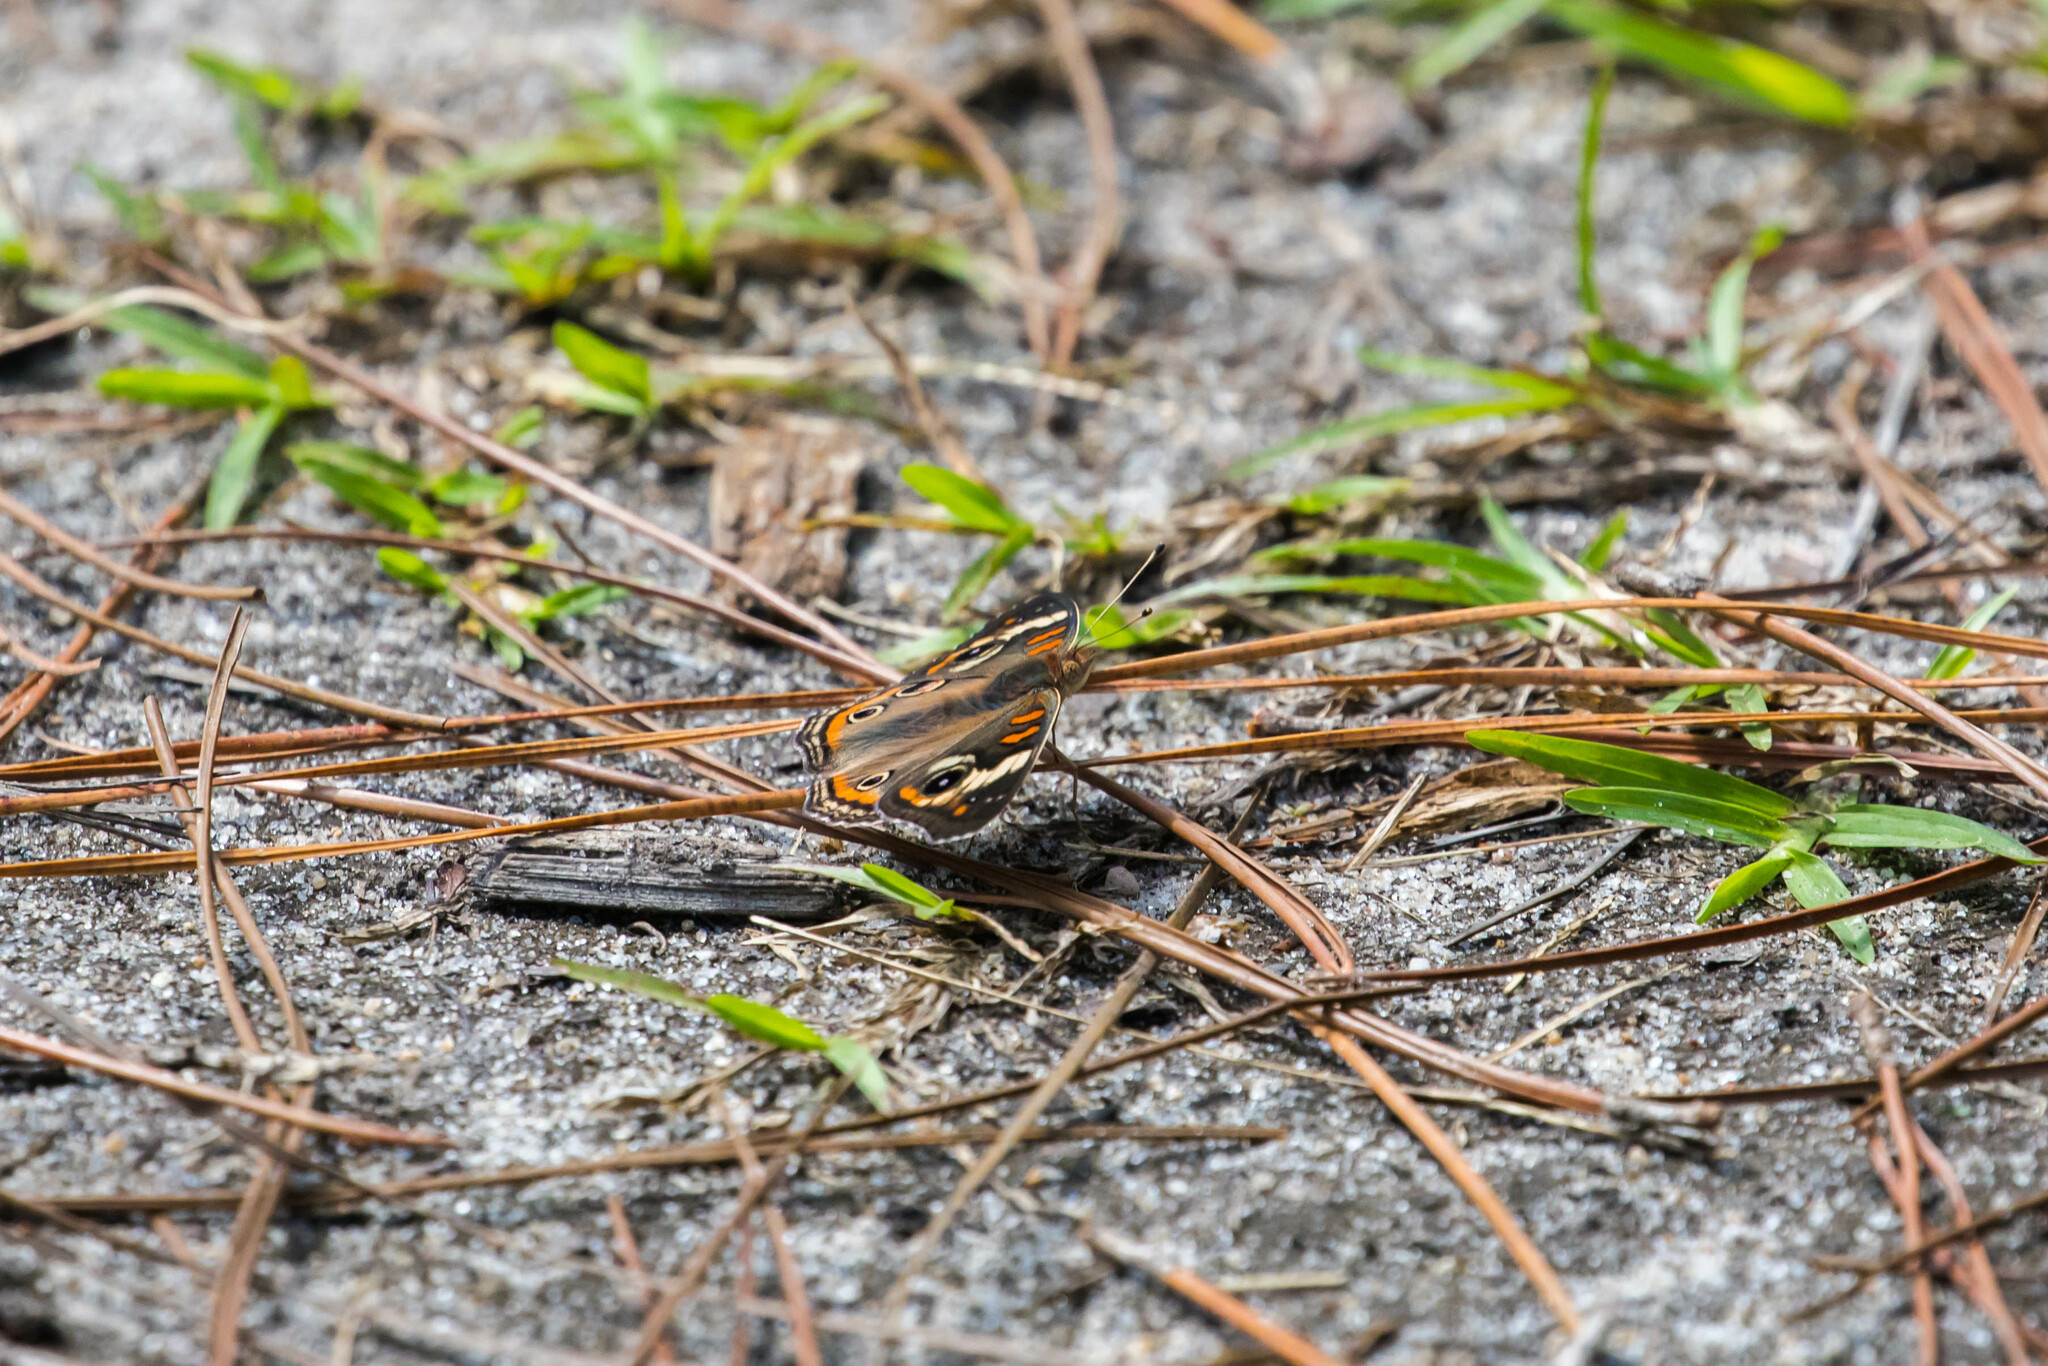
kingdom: Animalia
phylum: Arthropoda
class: Insecta
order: Lepidoptera
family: Nymphalidae
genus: Junonia
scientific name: Junonia coenia
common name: Common buckeye
